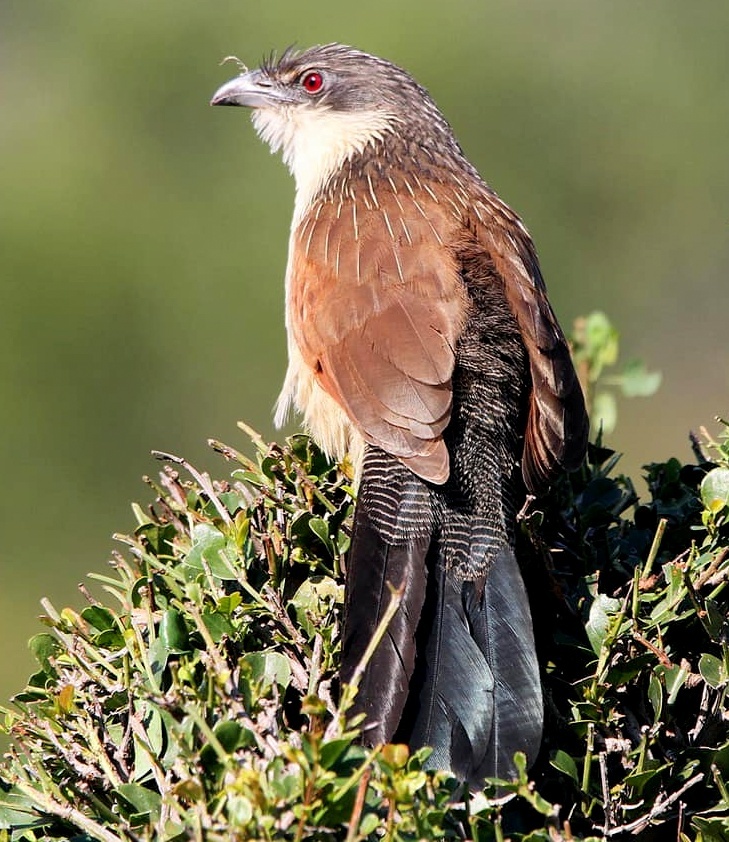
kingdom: Animalia
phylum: Chordata
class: Aves
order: Cuculiformes
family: Cuculidae
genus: Centropus
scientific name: Centropus superciliosus
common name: White-browed coucal
